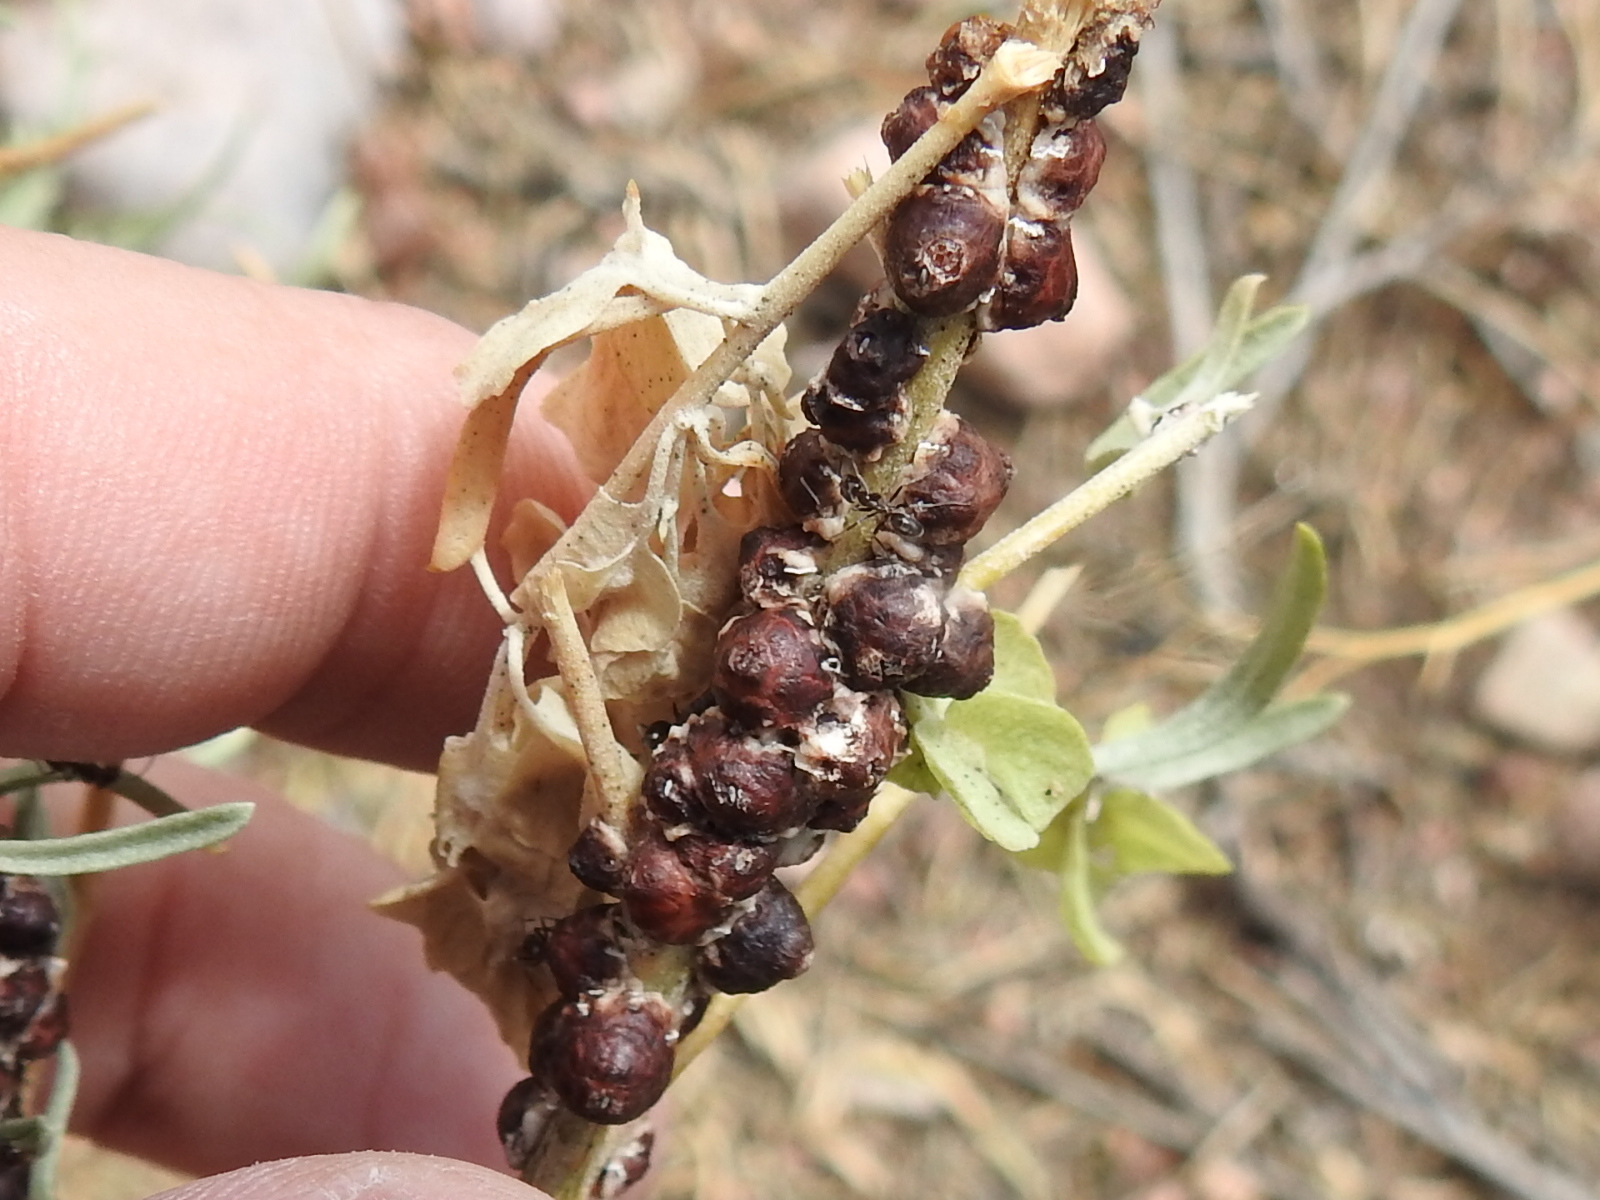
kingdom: Animalia
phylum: Arthropoda
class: Insecta
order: Hemiptera
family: Coccidae
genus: Ceroplastes
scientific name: Ceroplastes irregularis
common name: Irregular wax scale
